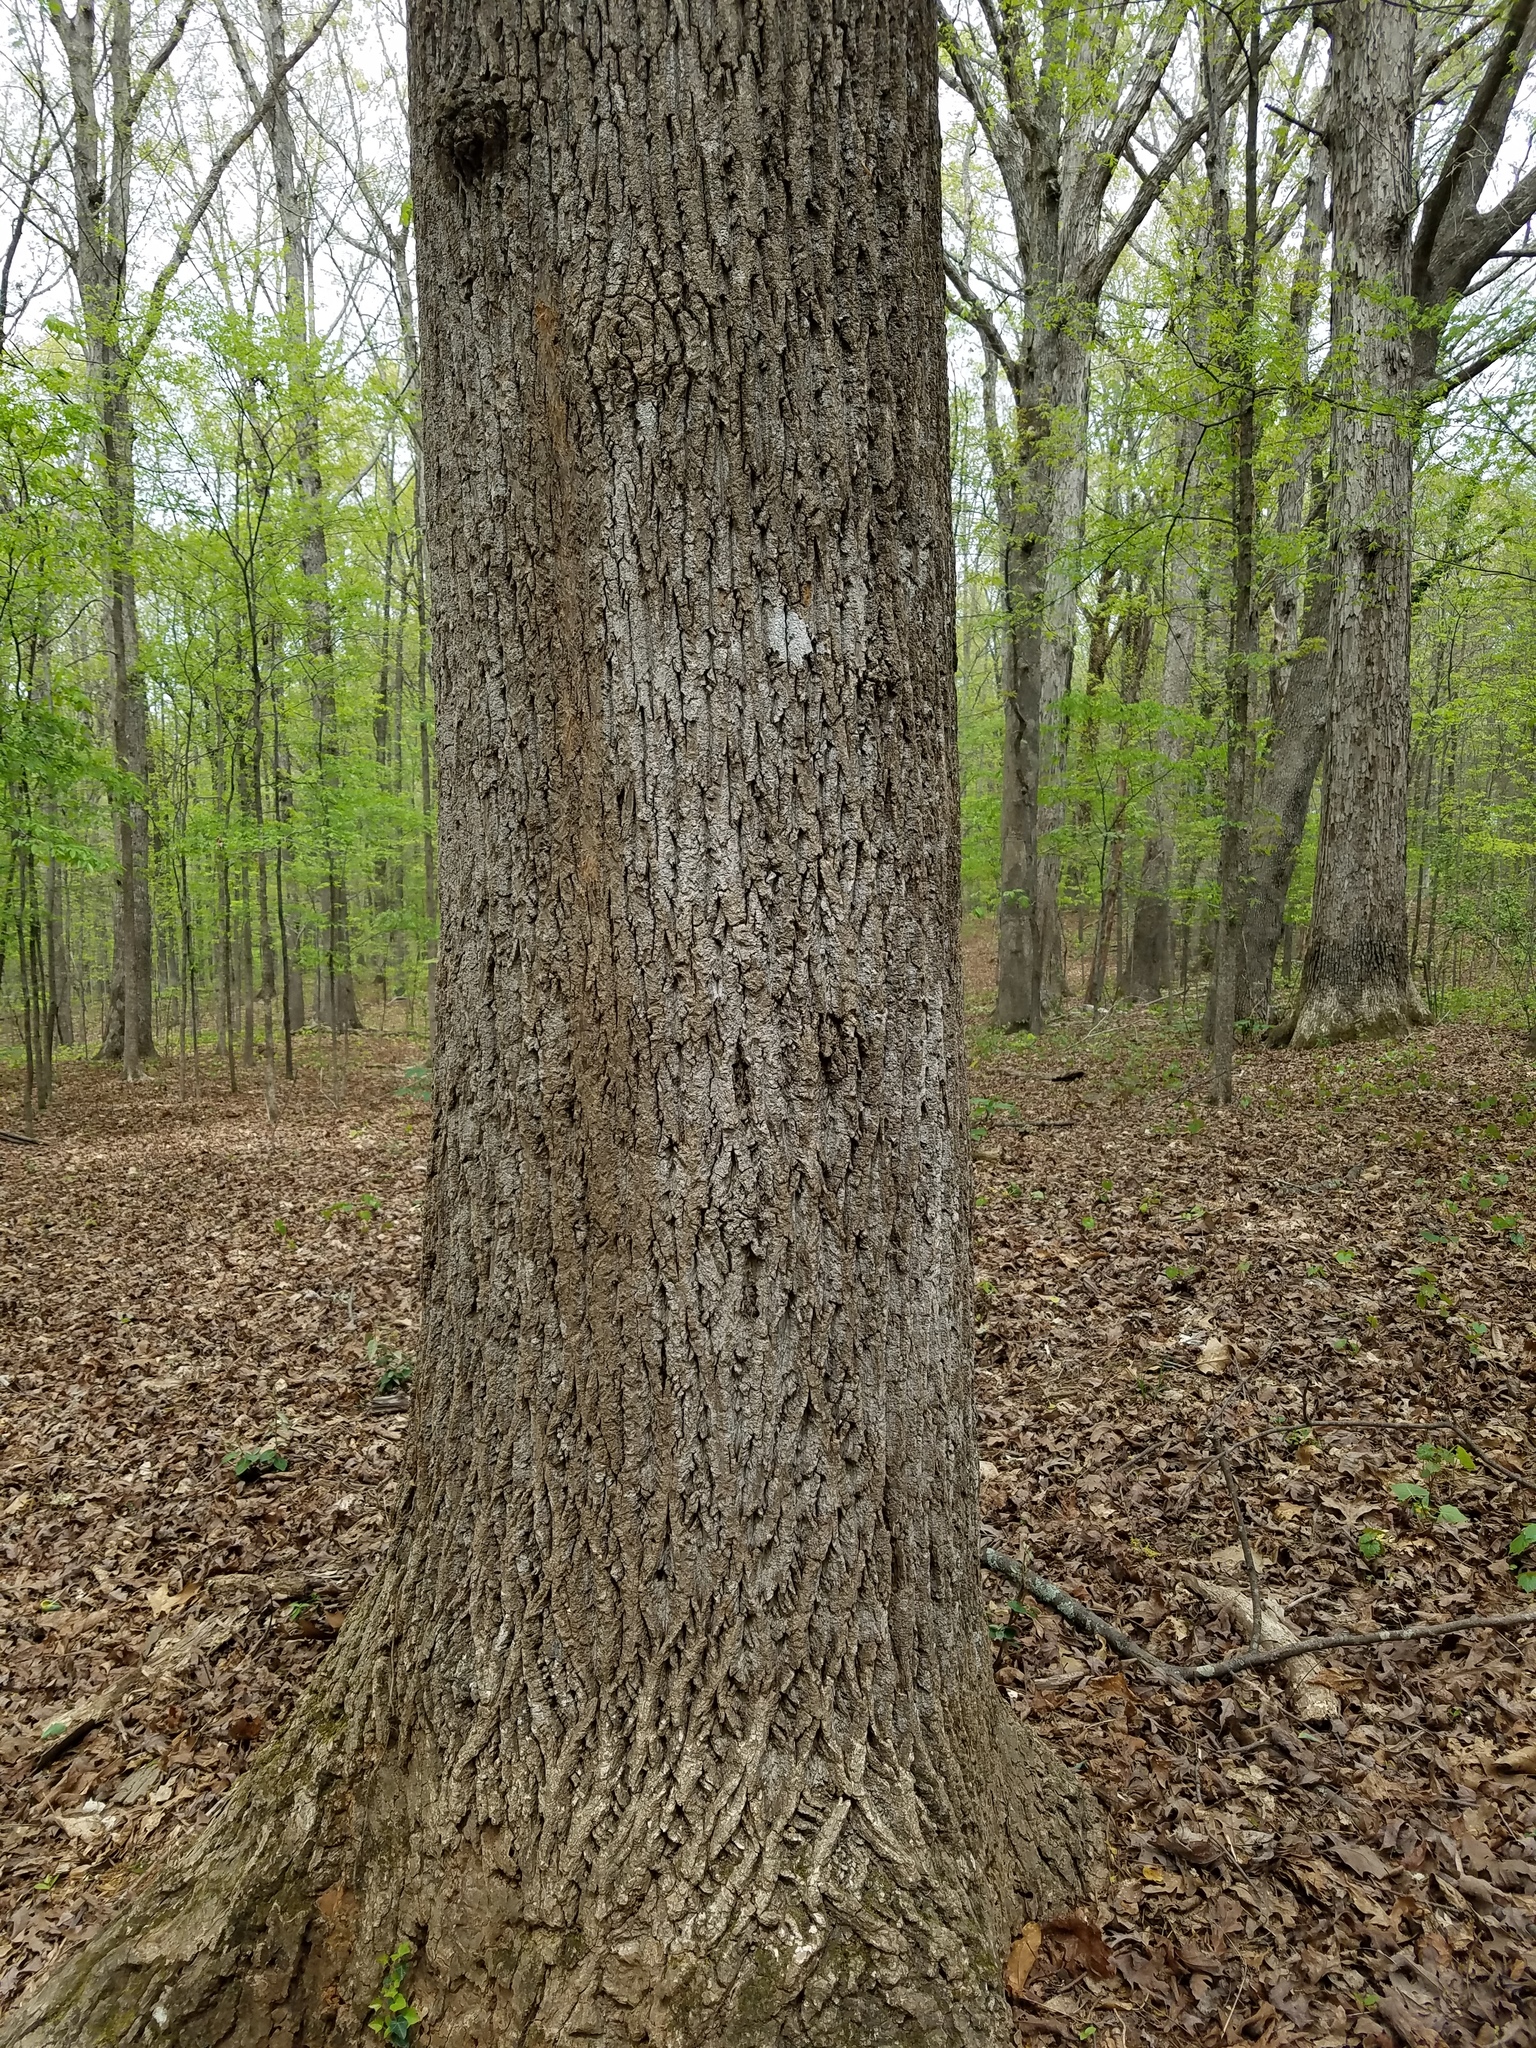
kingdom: Plantae
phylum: Tracheophyta
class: Magnoliopsida
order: Magnoliales
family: Magnoliaceae
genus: Liriodendron
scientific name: Liriodendron tulipifera
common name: Tulip tree
